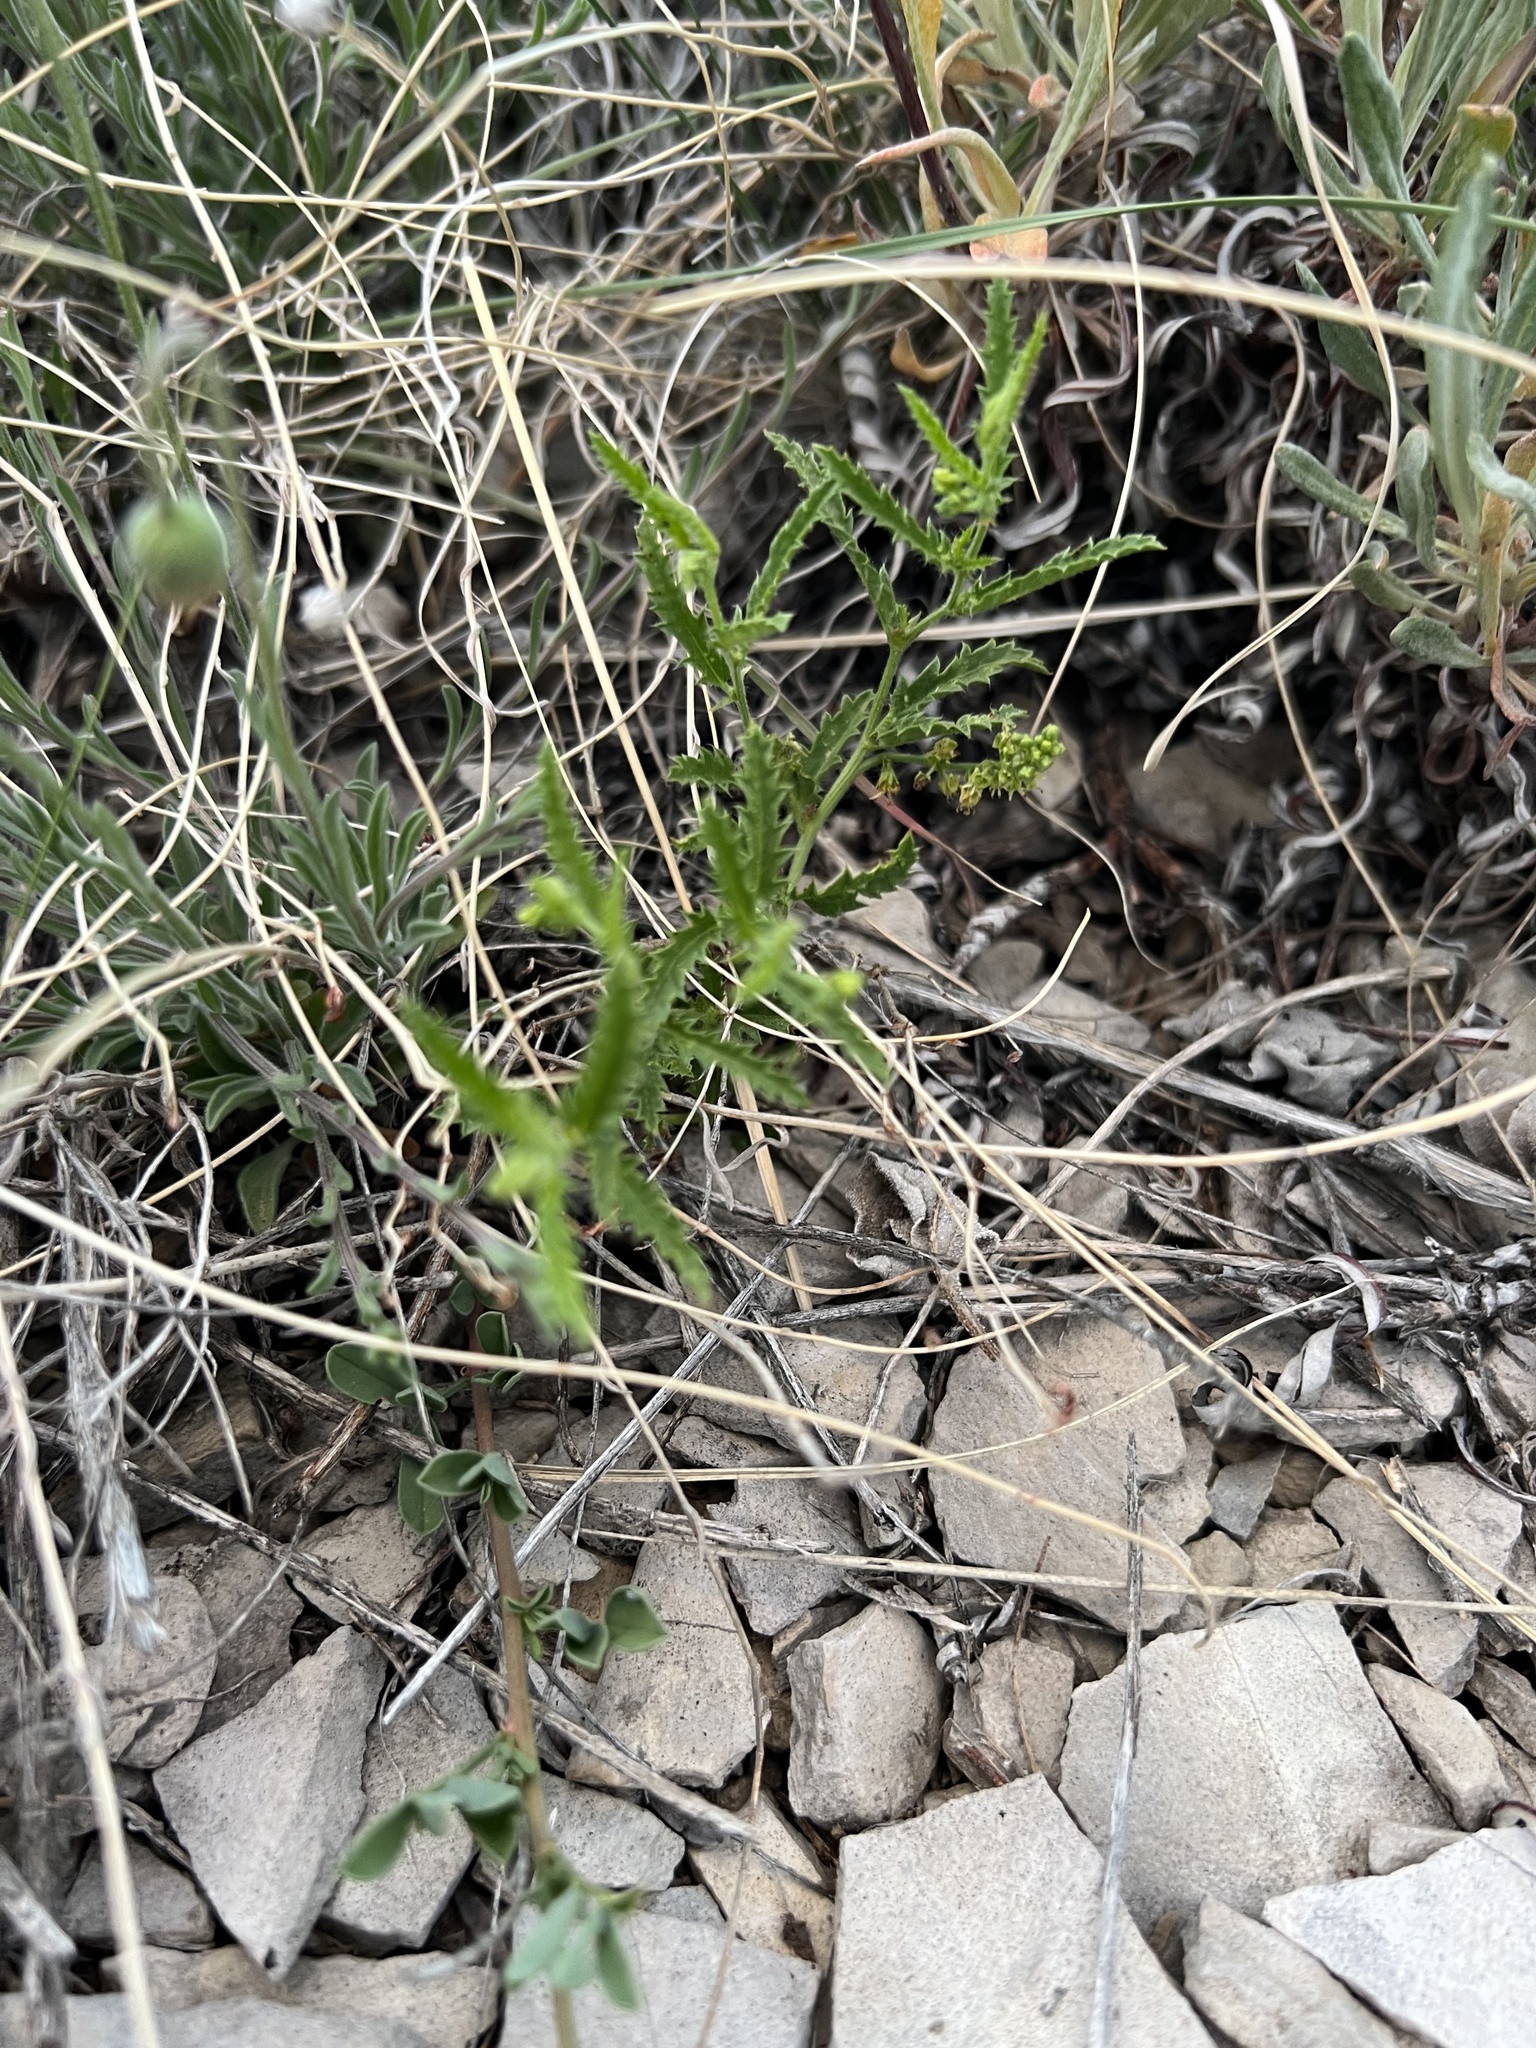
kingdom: Plantae
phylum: Tracheophyta
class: Magnoliopsida
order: Malpighiales
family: Euphorbiaceae
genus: Tragia
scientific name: Tragia ramosa
